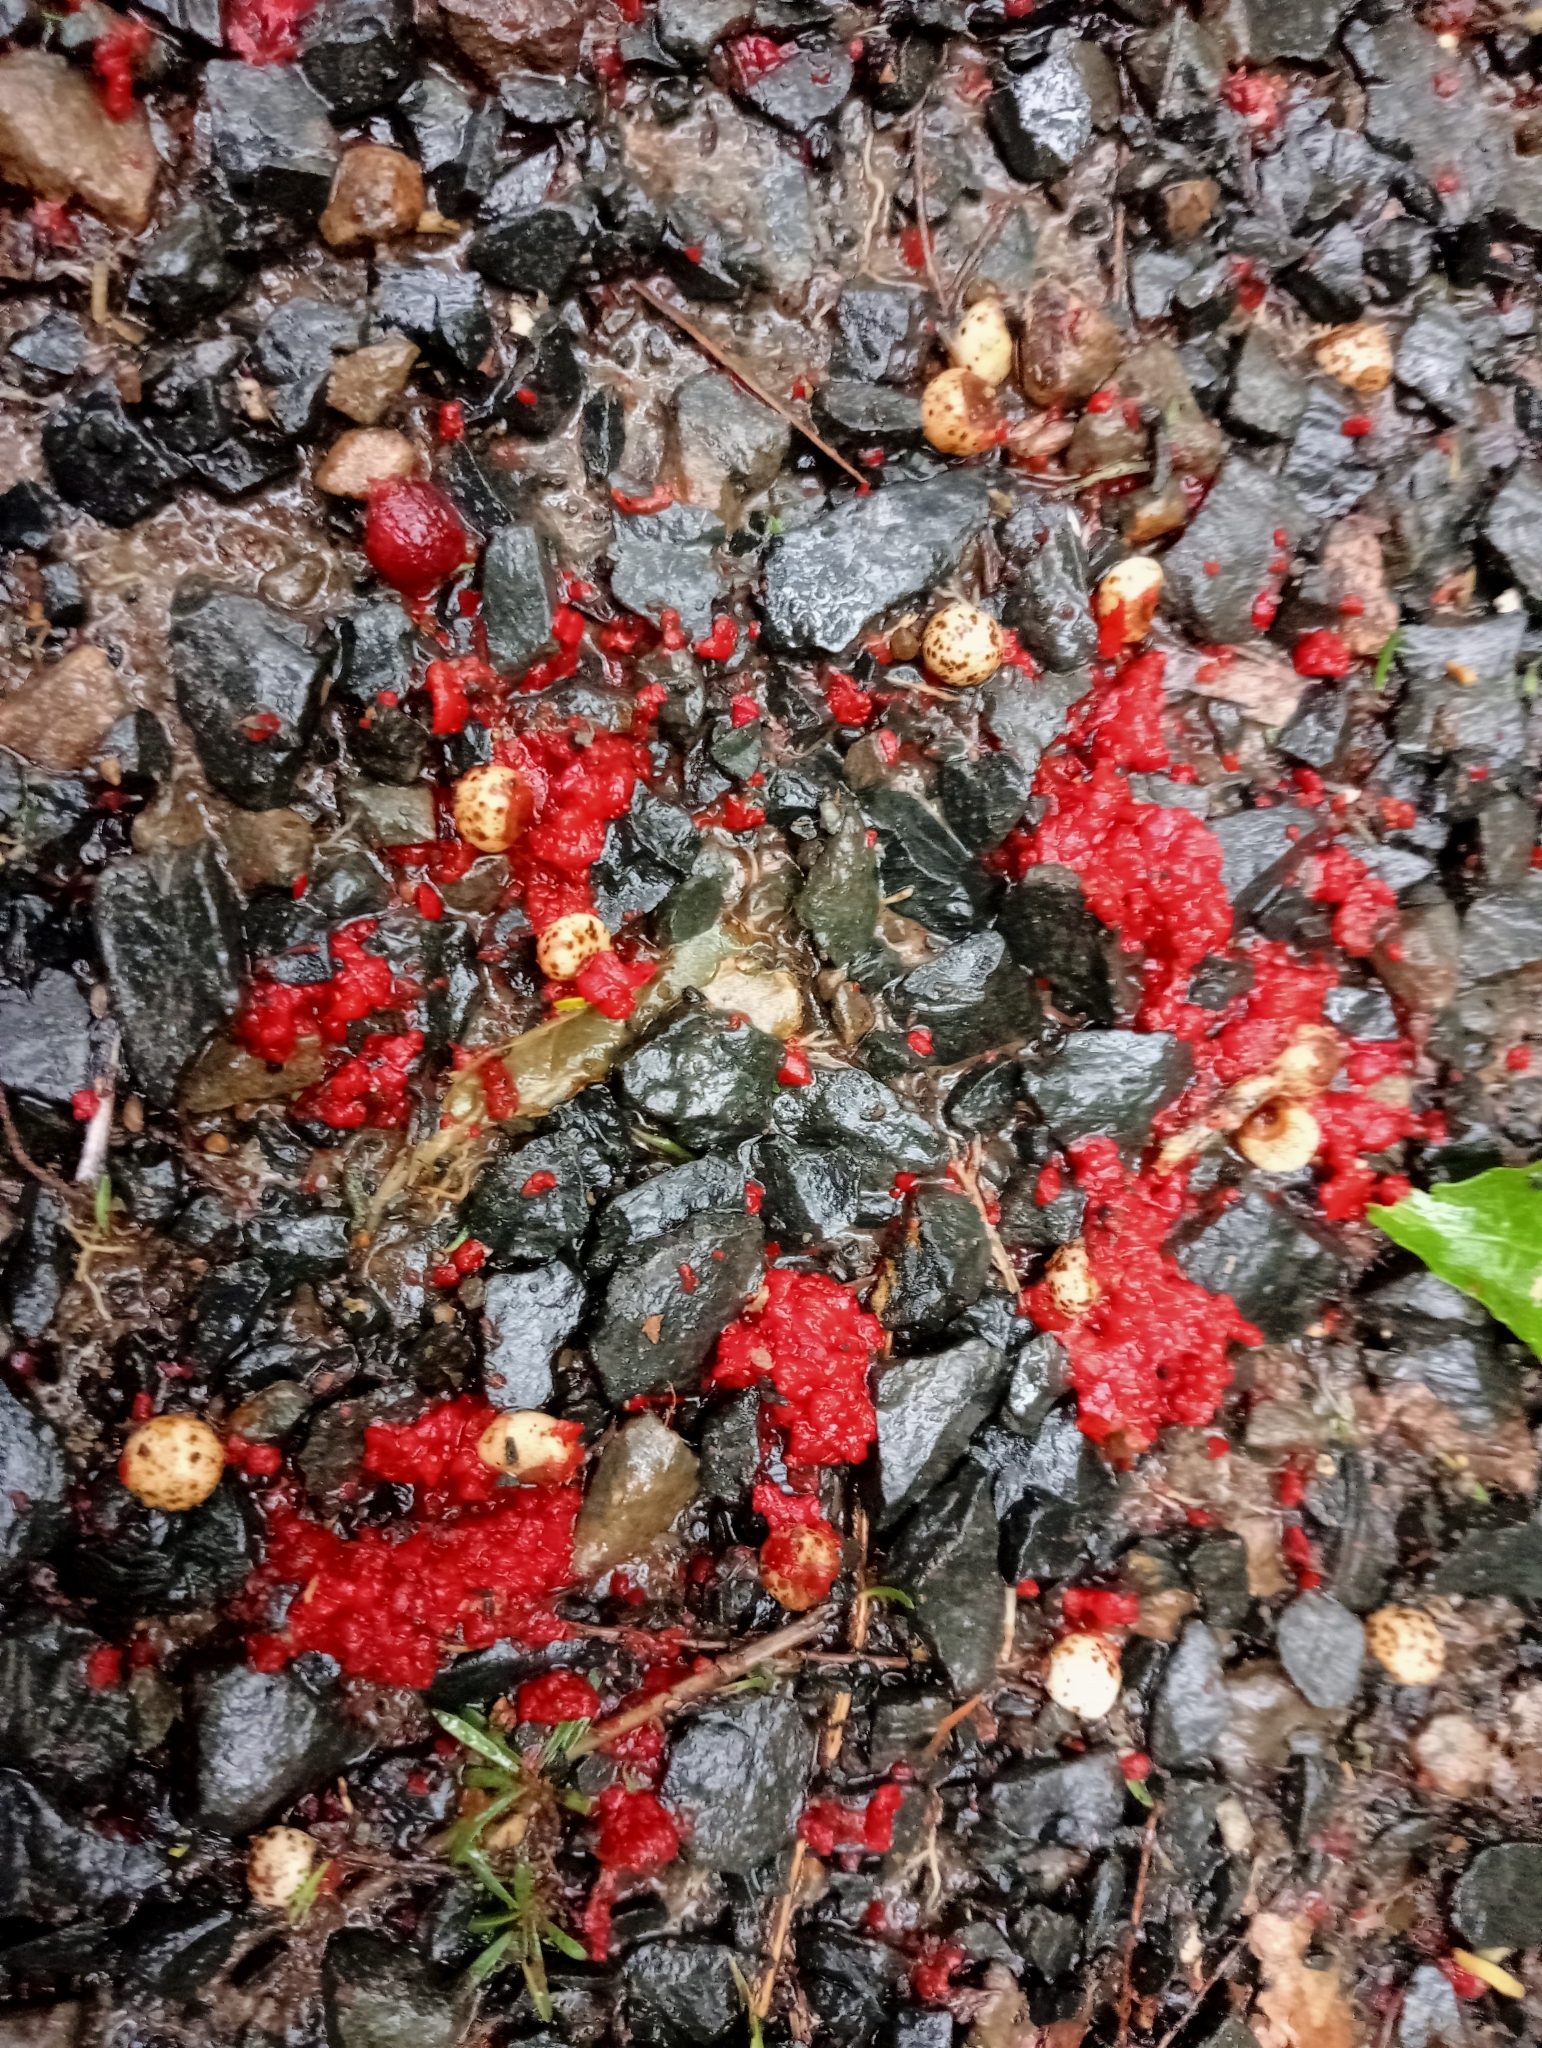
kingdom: Plantae
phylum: Tracheophyta
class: Liliopsida
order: Liliales
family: Ripogonaceae
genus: Ripogonum
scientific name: Ripogonum scandens
